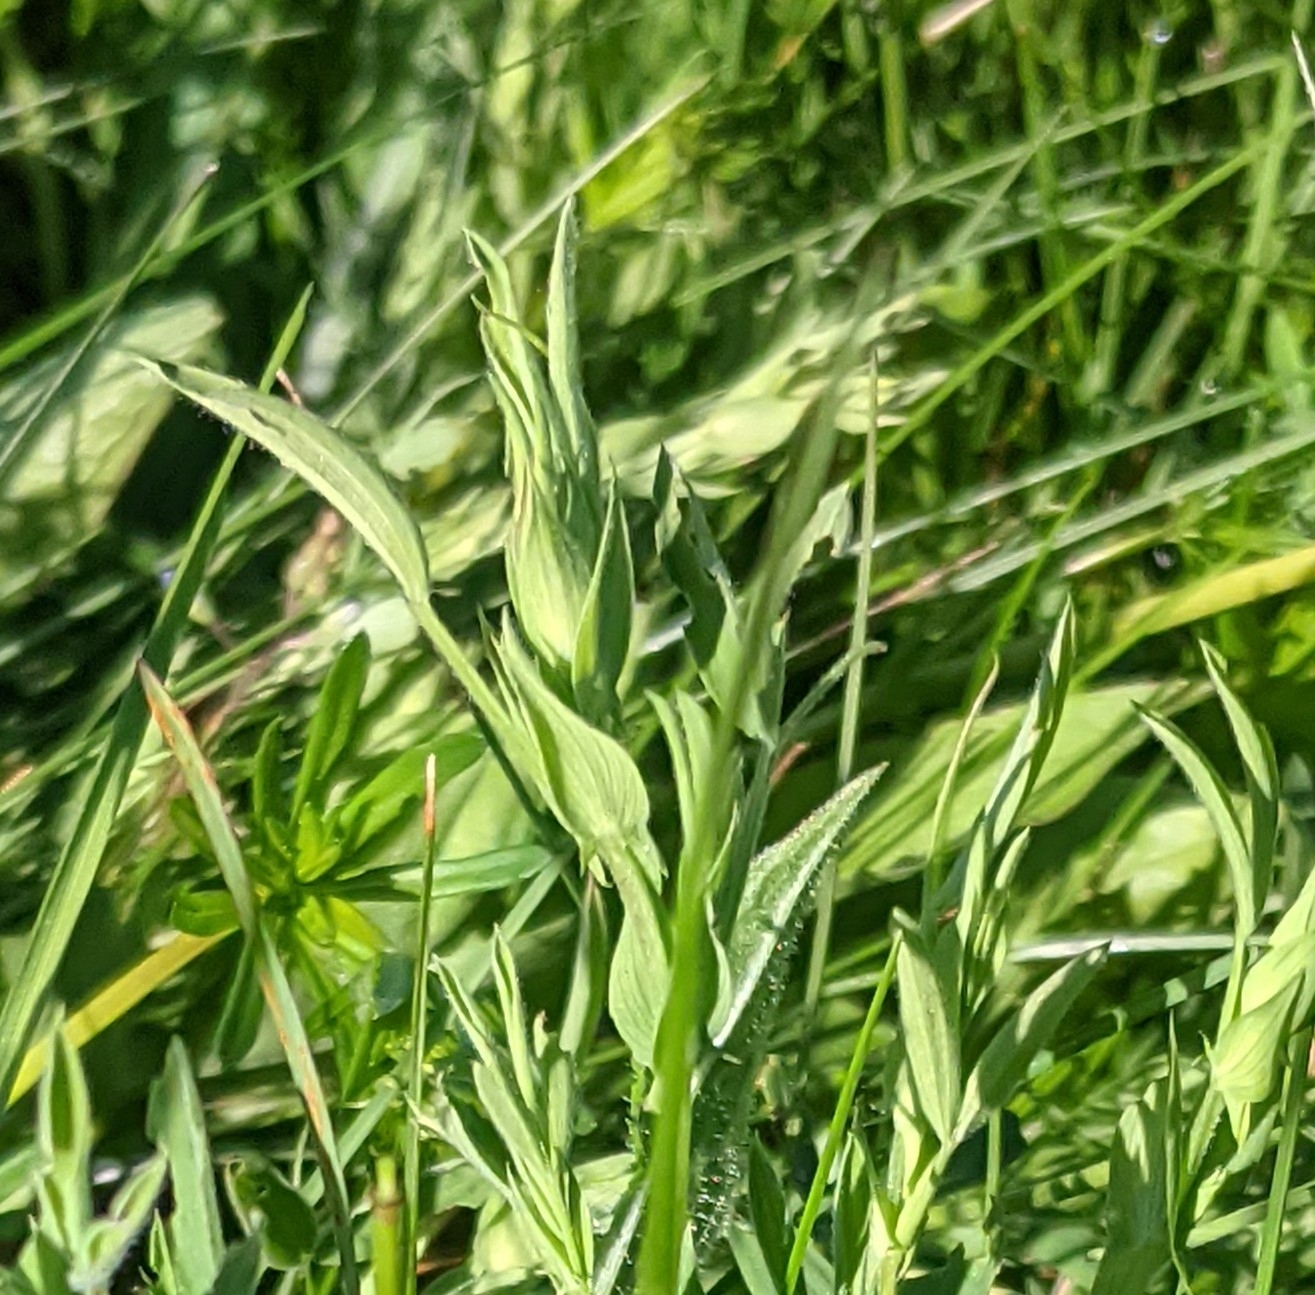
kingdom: Plantae
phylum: Tracheophyta
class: Magnoliopsida
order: Fabales
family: Fabaceae
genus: Lathyrus
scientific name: Lathyrus pratensis
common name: Meadow vetchling
